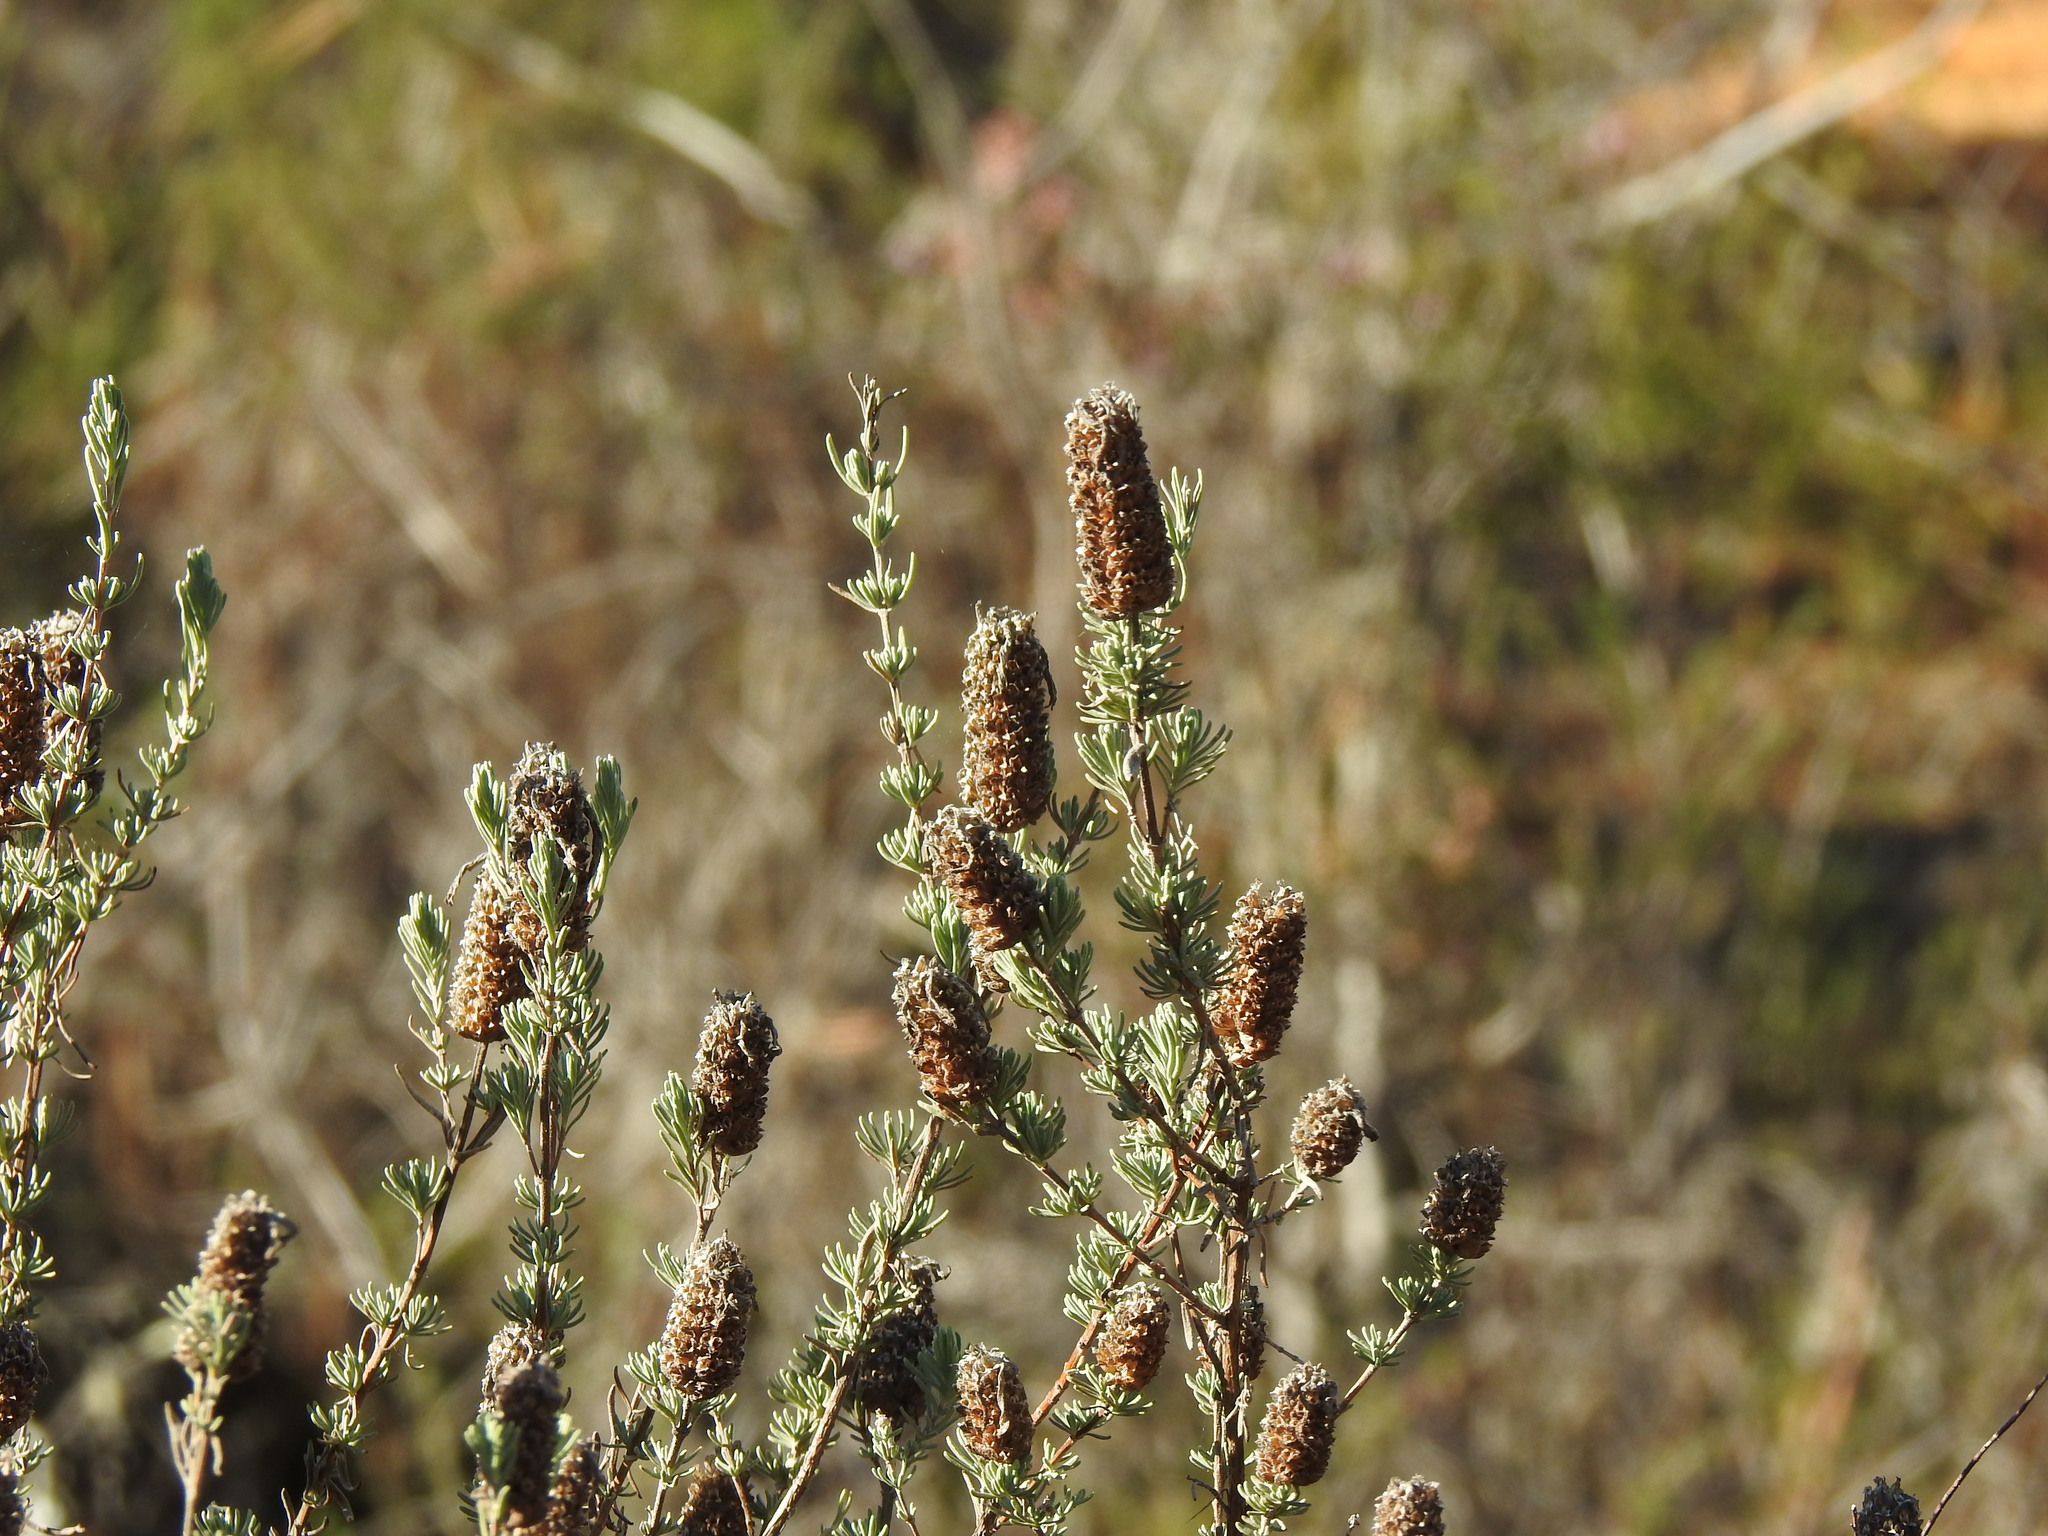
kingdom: Plantae
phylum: Tracheophyta
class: Magnoliopsida
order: Lamiales
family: Lamiaceae
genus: Lavandula
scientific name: Lavandula stoechas
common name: French lavender
